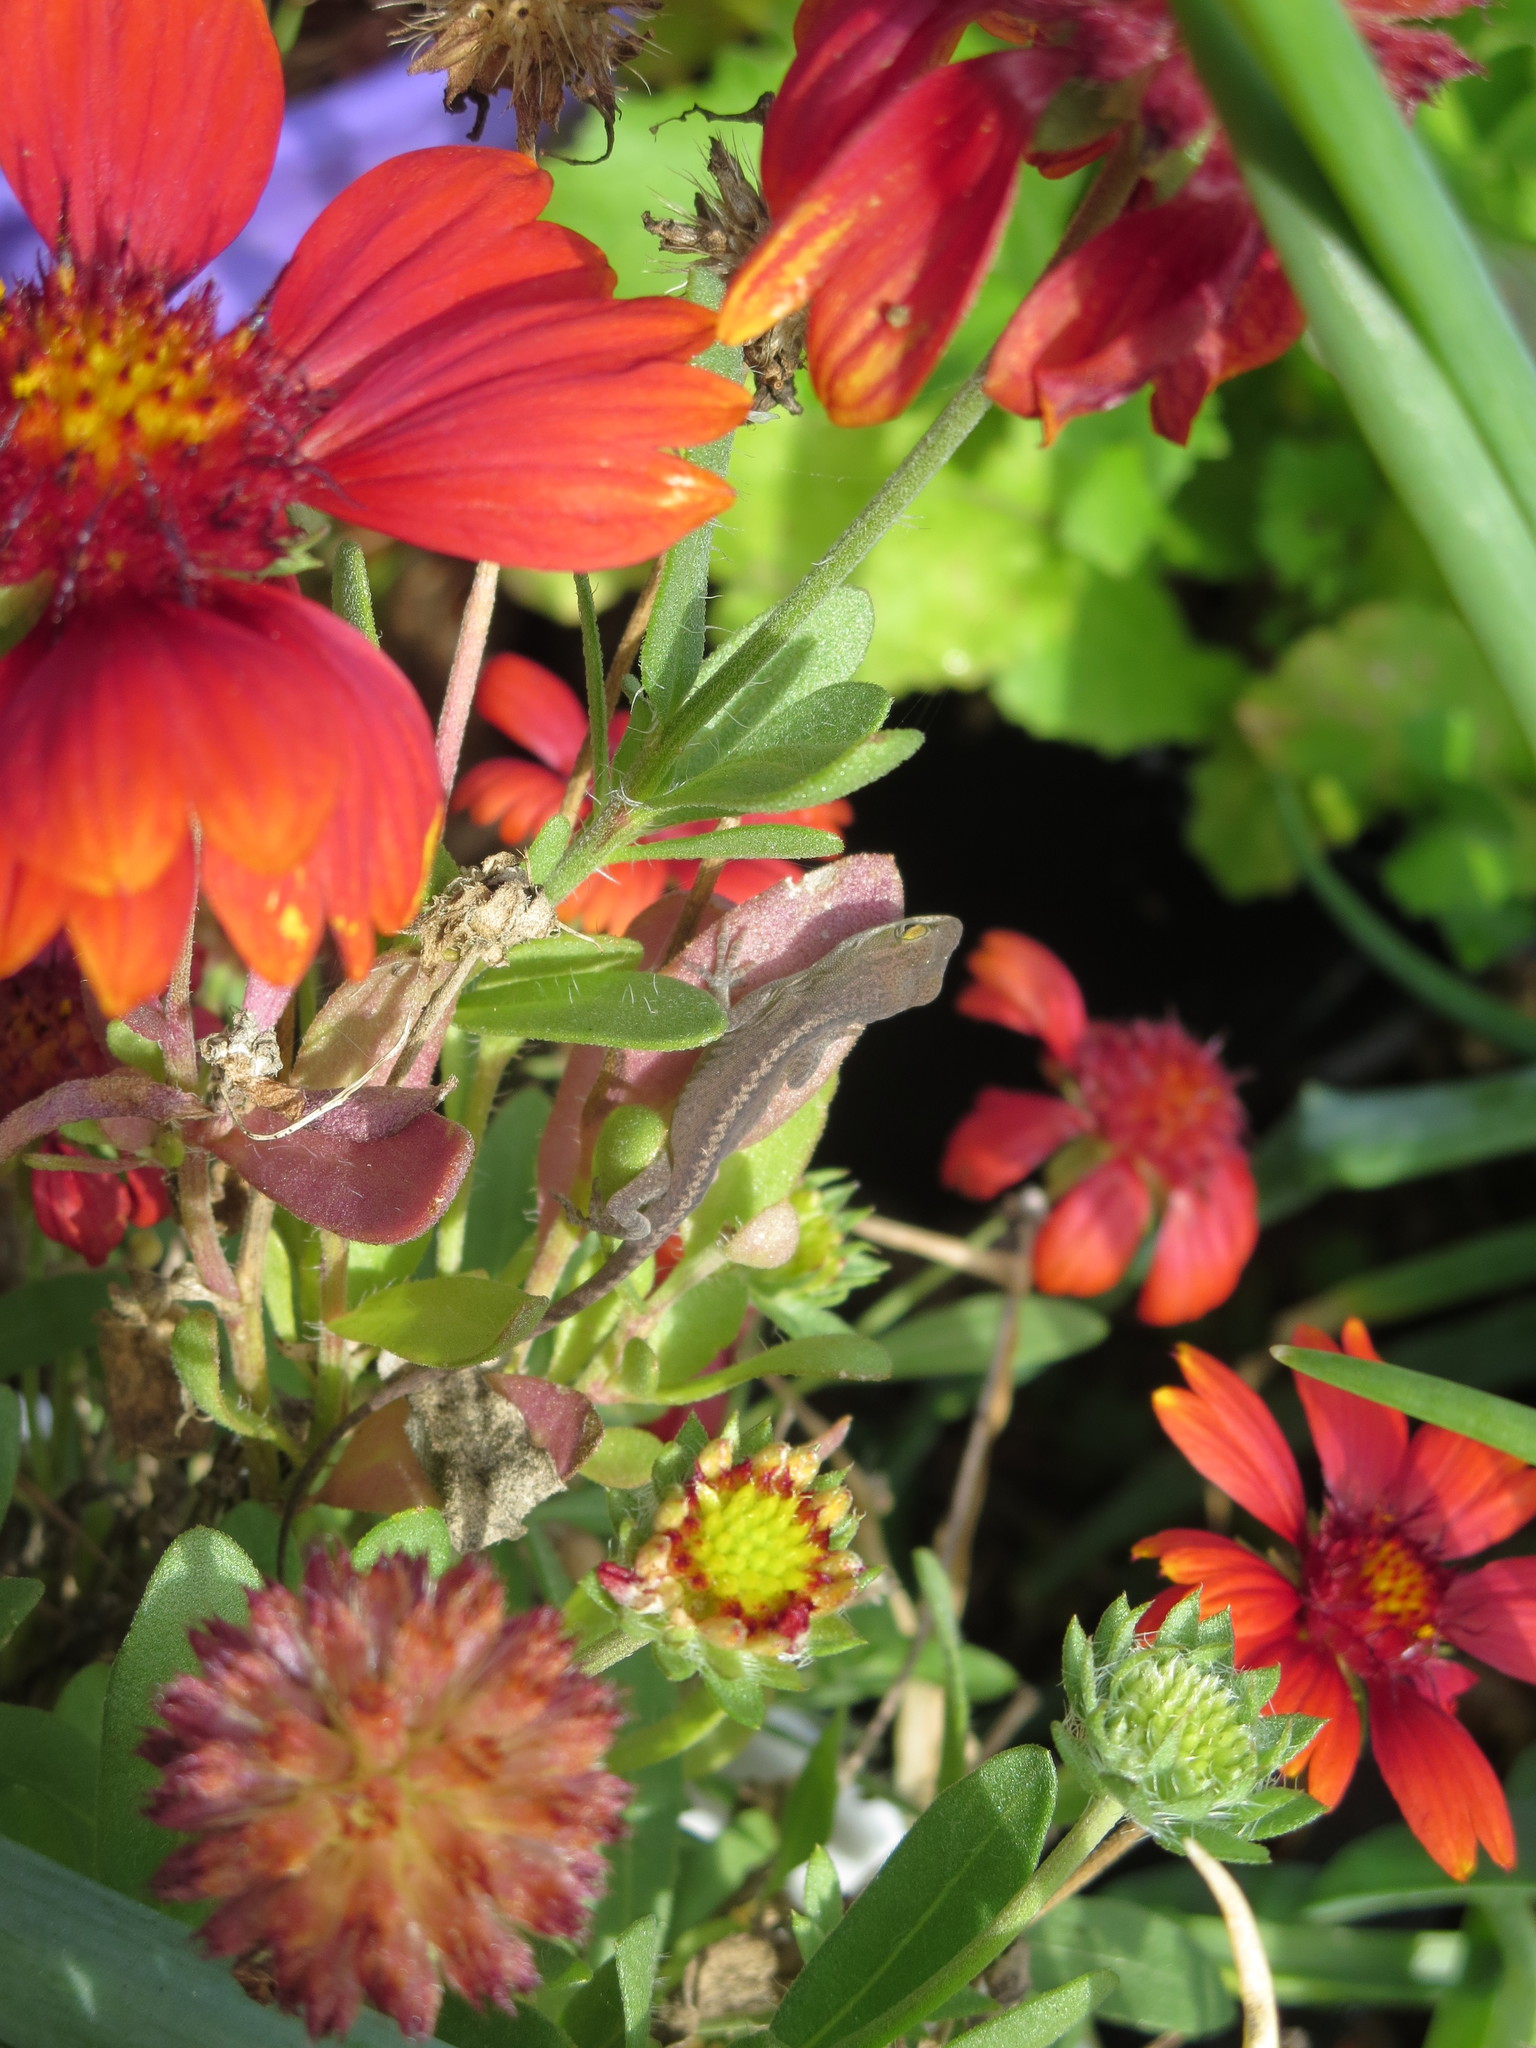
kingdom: Animalia
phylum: Chordata
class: Squamata
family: Dactyloidae
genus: Anolis
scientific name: Anolis carolinensis
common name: Green anole
